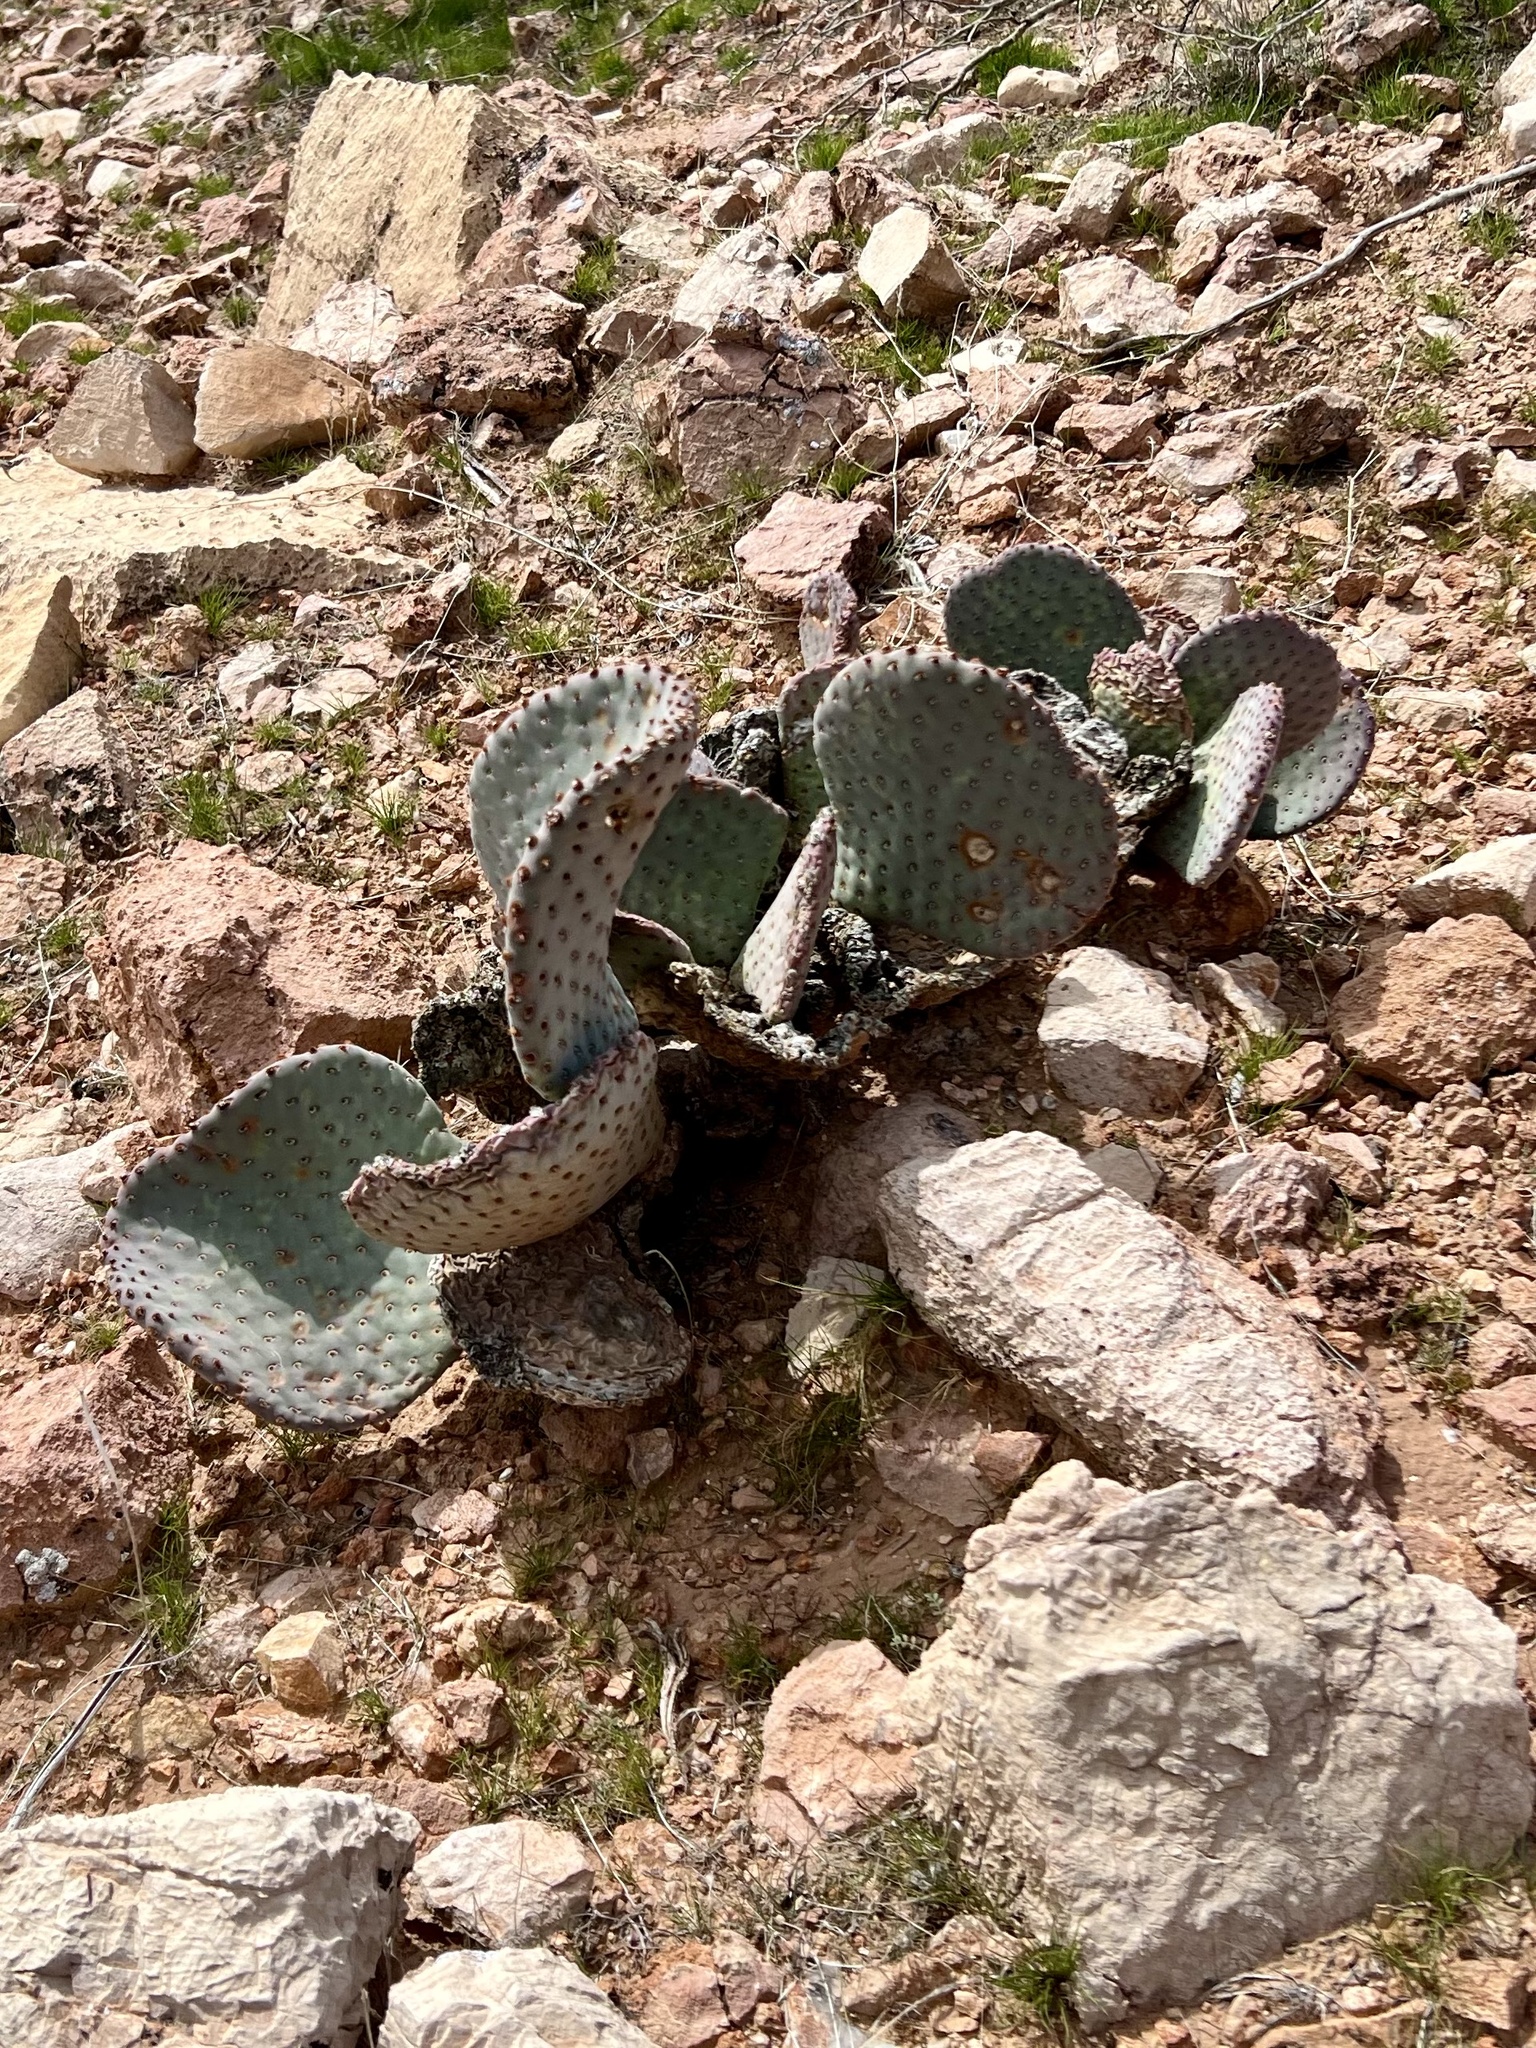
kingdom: Plantae
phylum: Tracheophyta
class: Magnoliopsida
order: Caryophyllales
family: Cactaceae
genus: Opuntia
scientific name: Opuntia basilaris
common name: Beavertail prickly-pear
